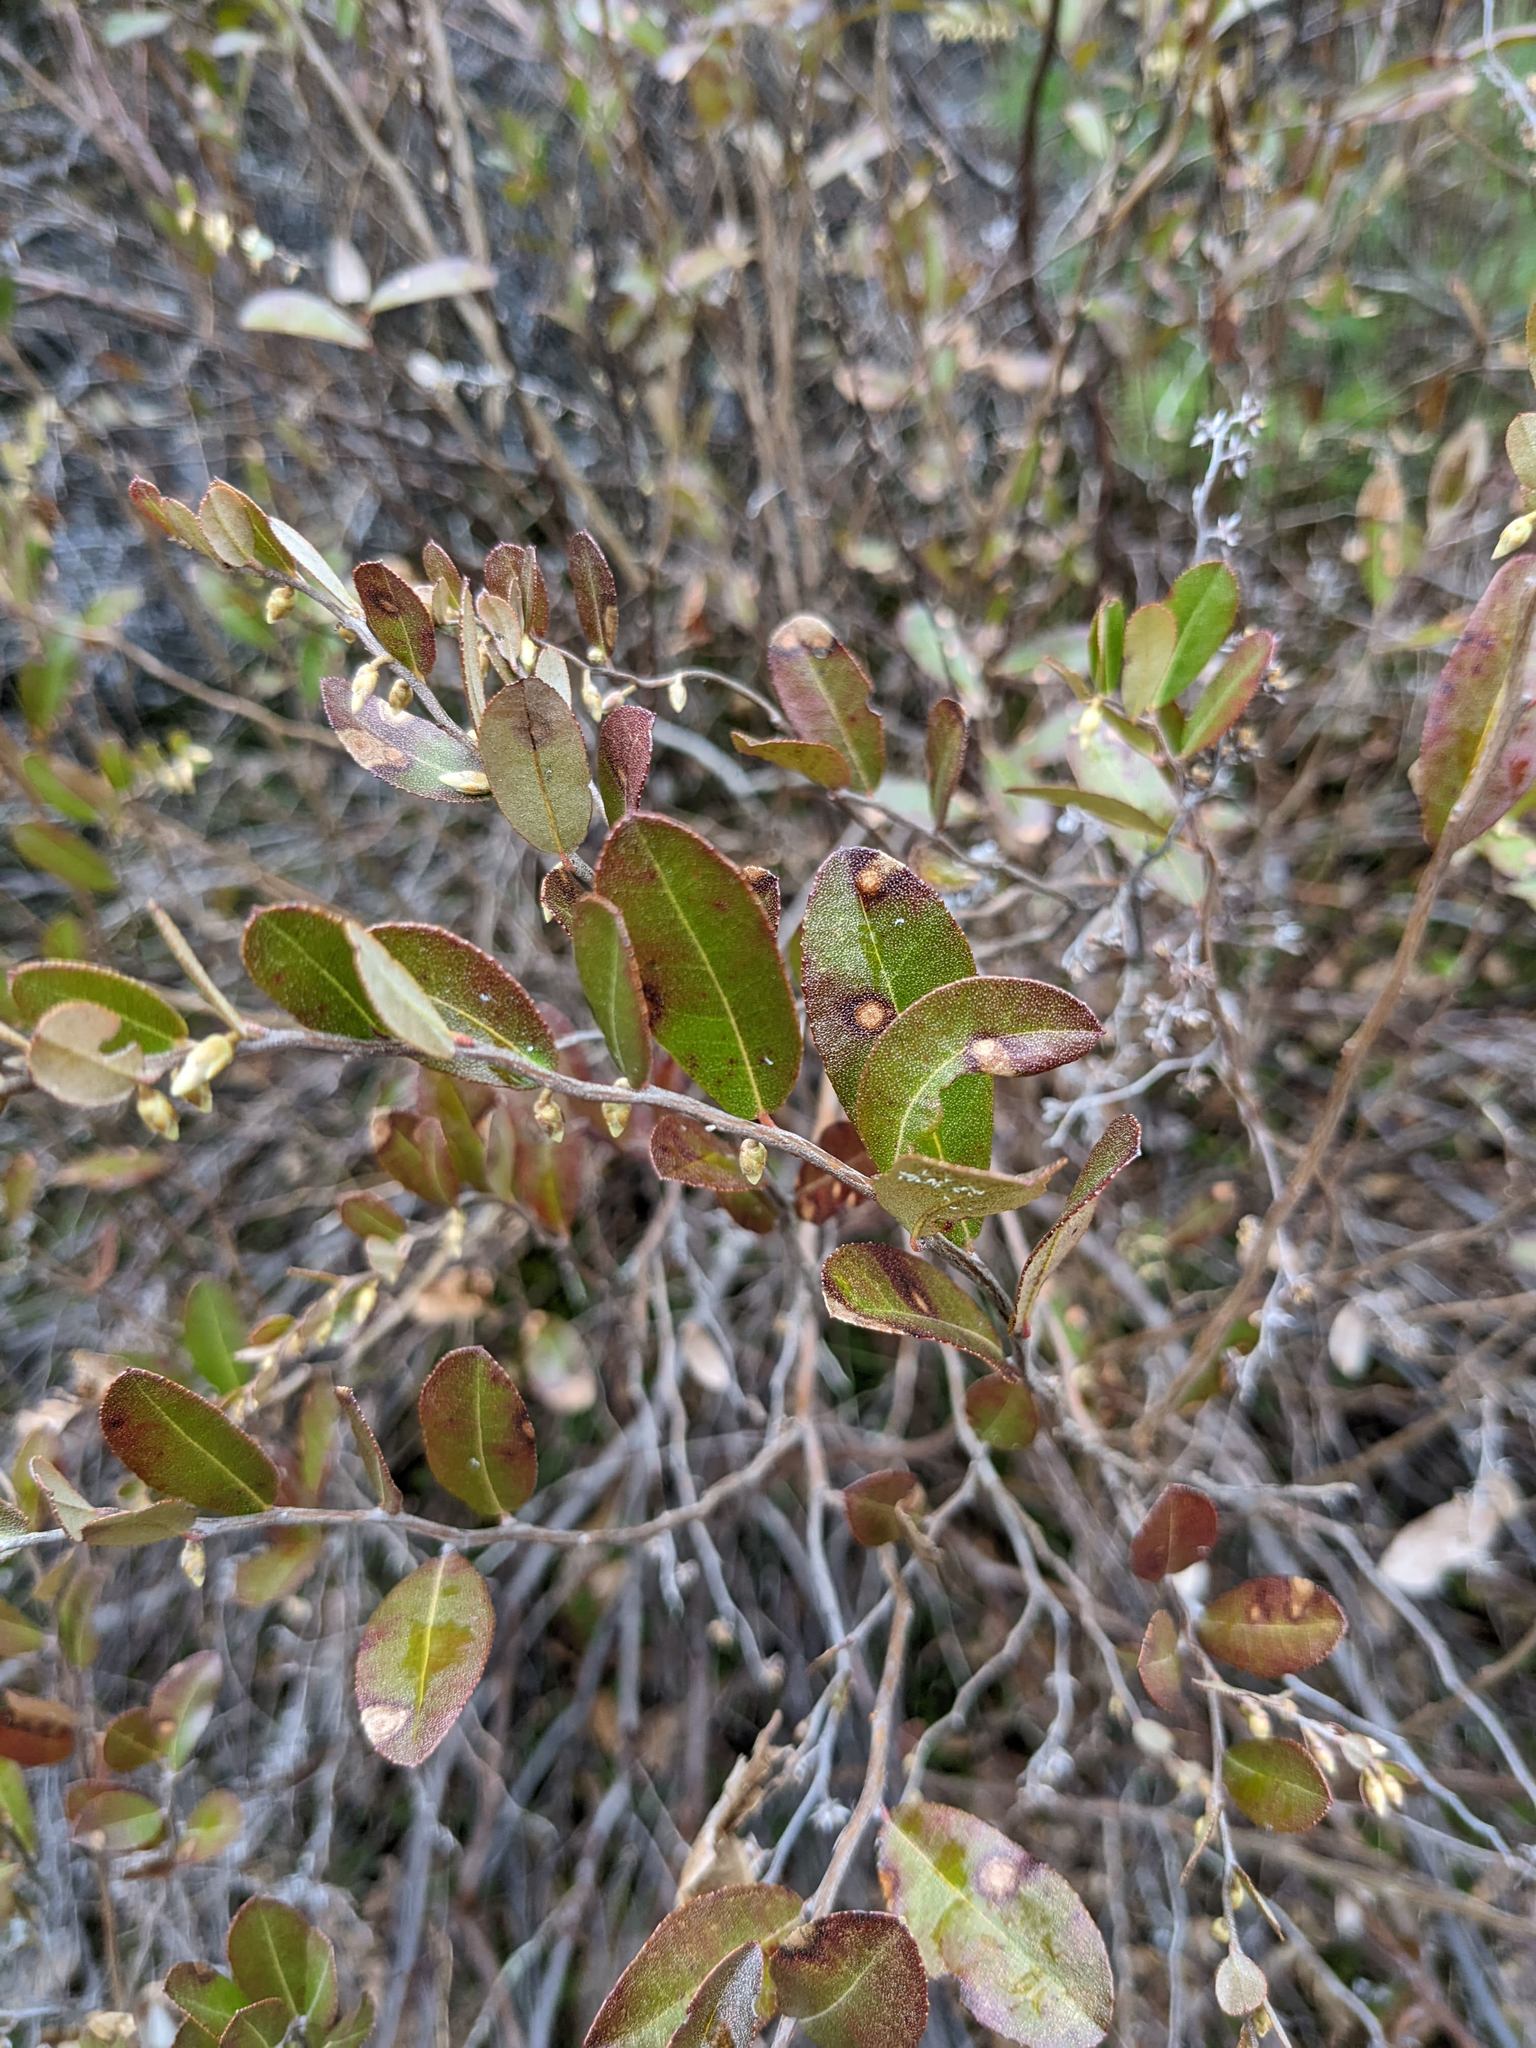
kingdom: Plantae
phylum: Tracheophyta
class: Magnoliopsida
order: Ericales
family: Ericaceae
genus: Chamaedaphne
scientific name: Chamaedaphne calyculata
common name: Leatherleaf
